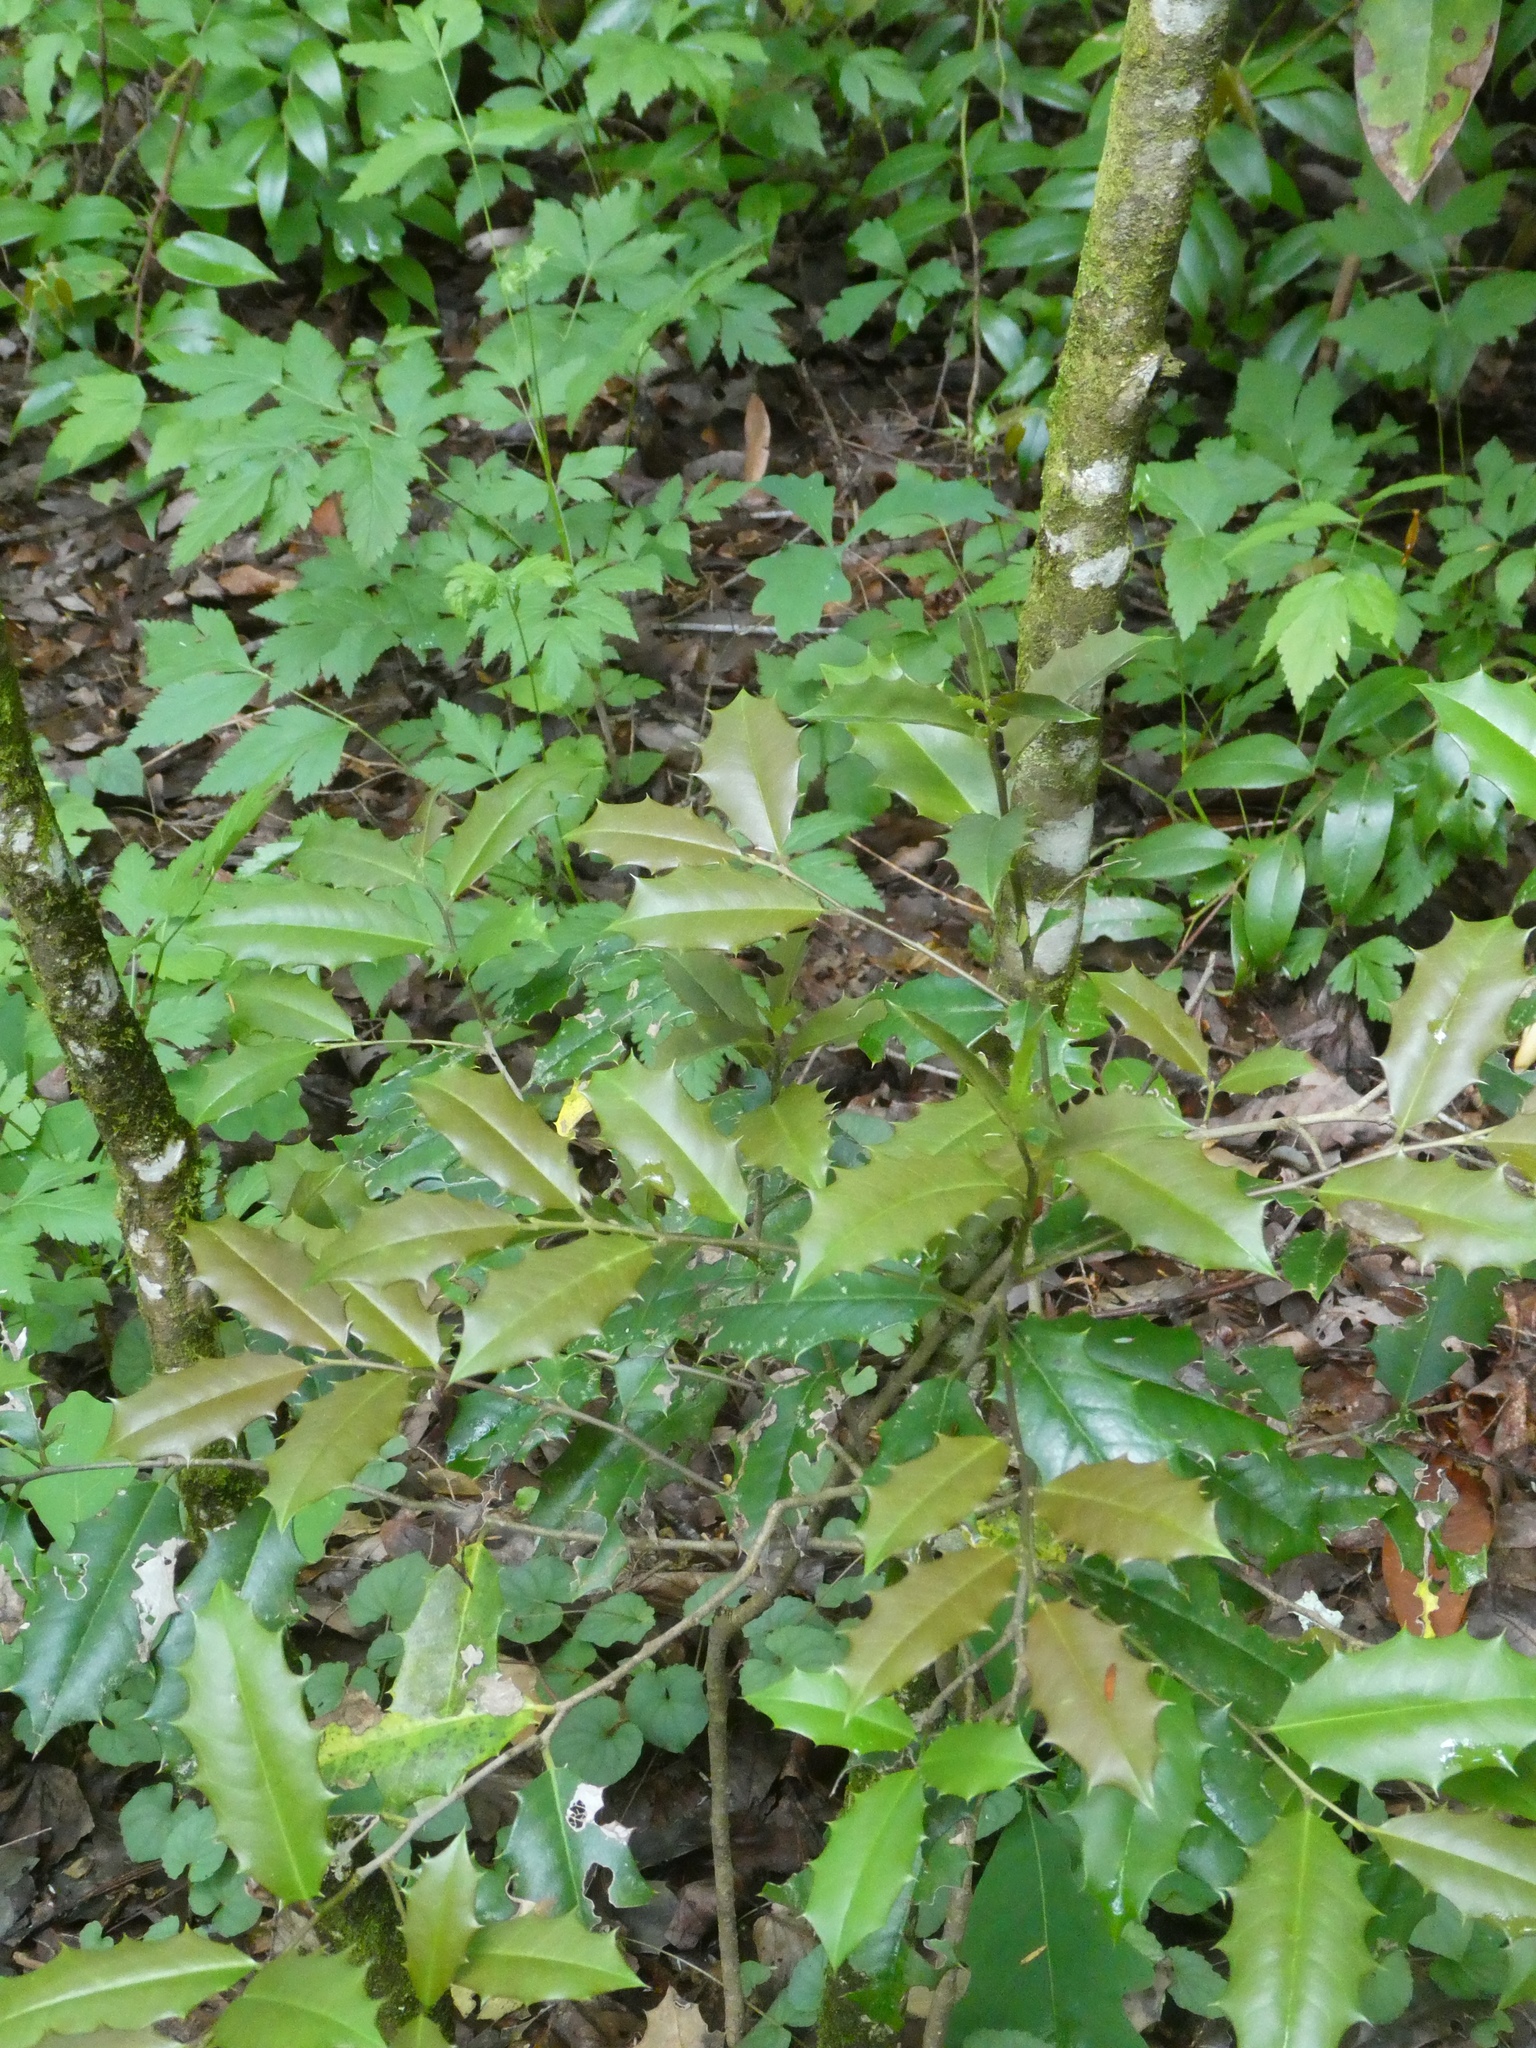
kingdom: Plantae
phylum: Tracheophyta
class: Magnoliopsida
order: Aquifoliales
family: Aquifoliaceae
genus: Ilex
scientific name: Ilex opaca
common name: American holly
